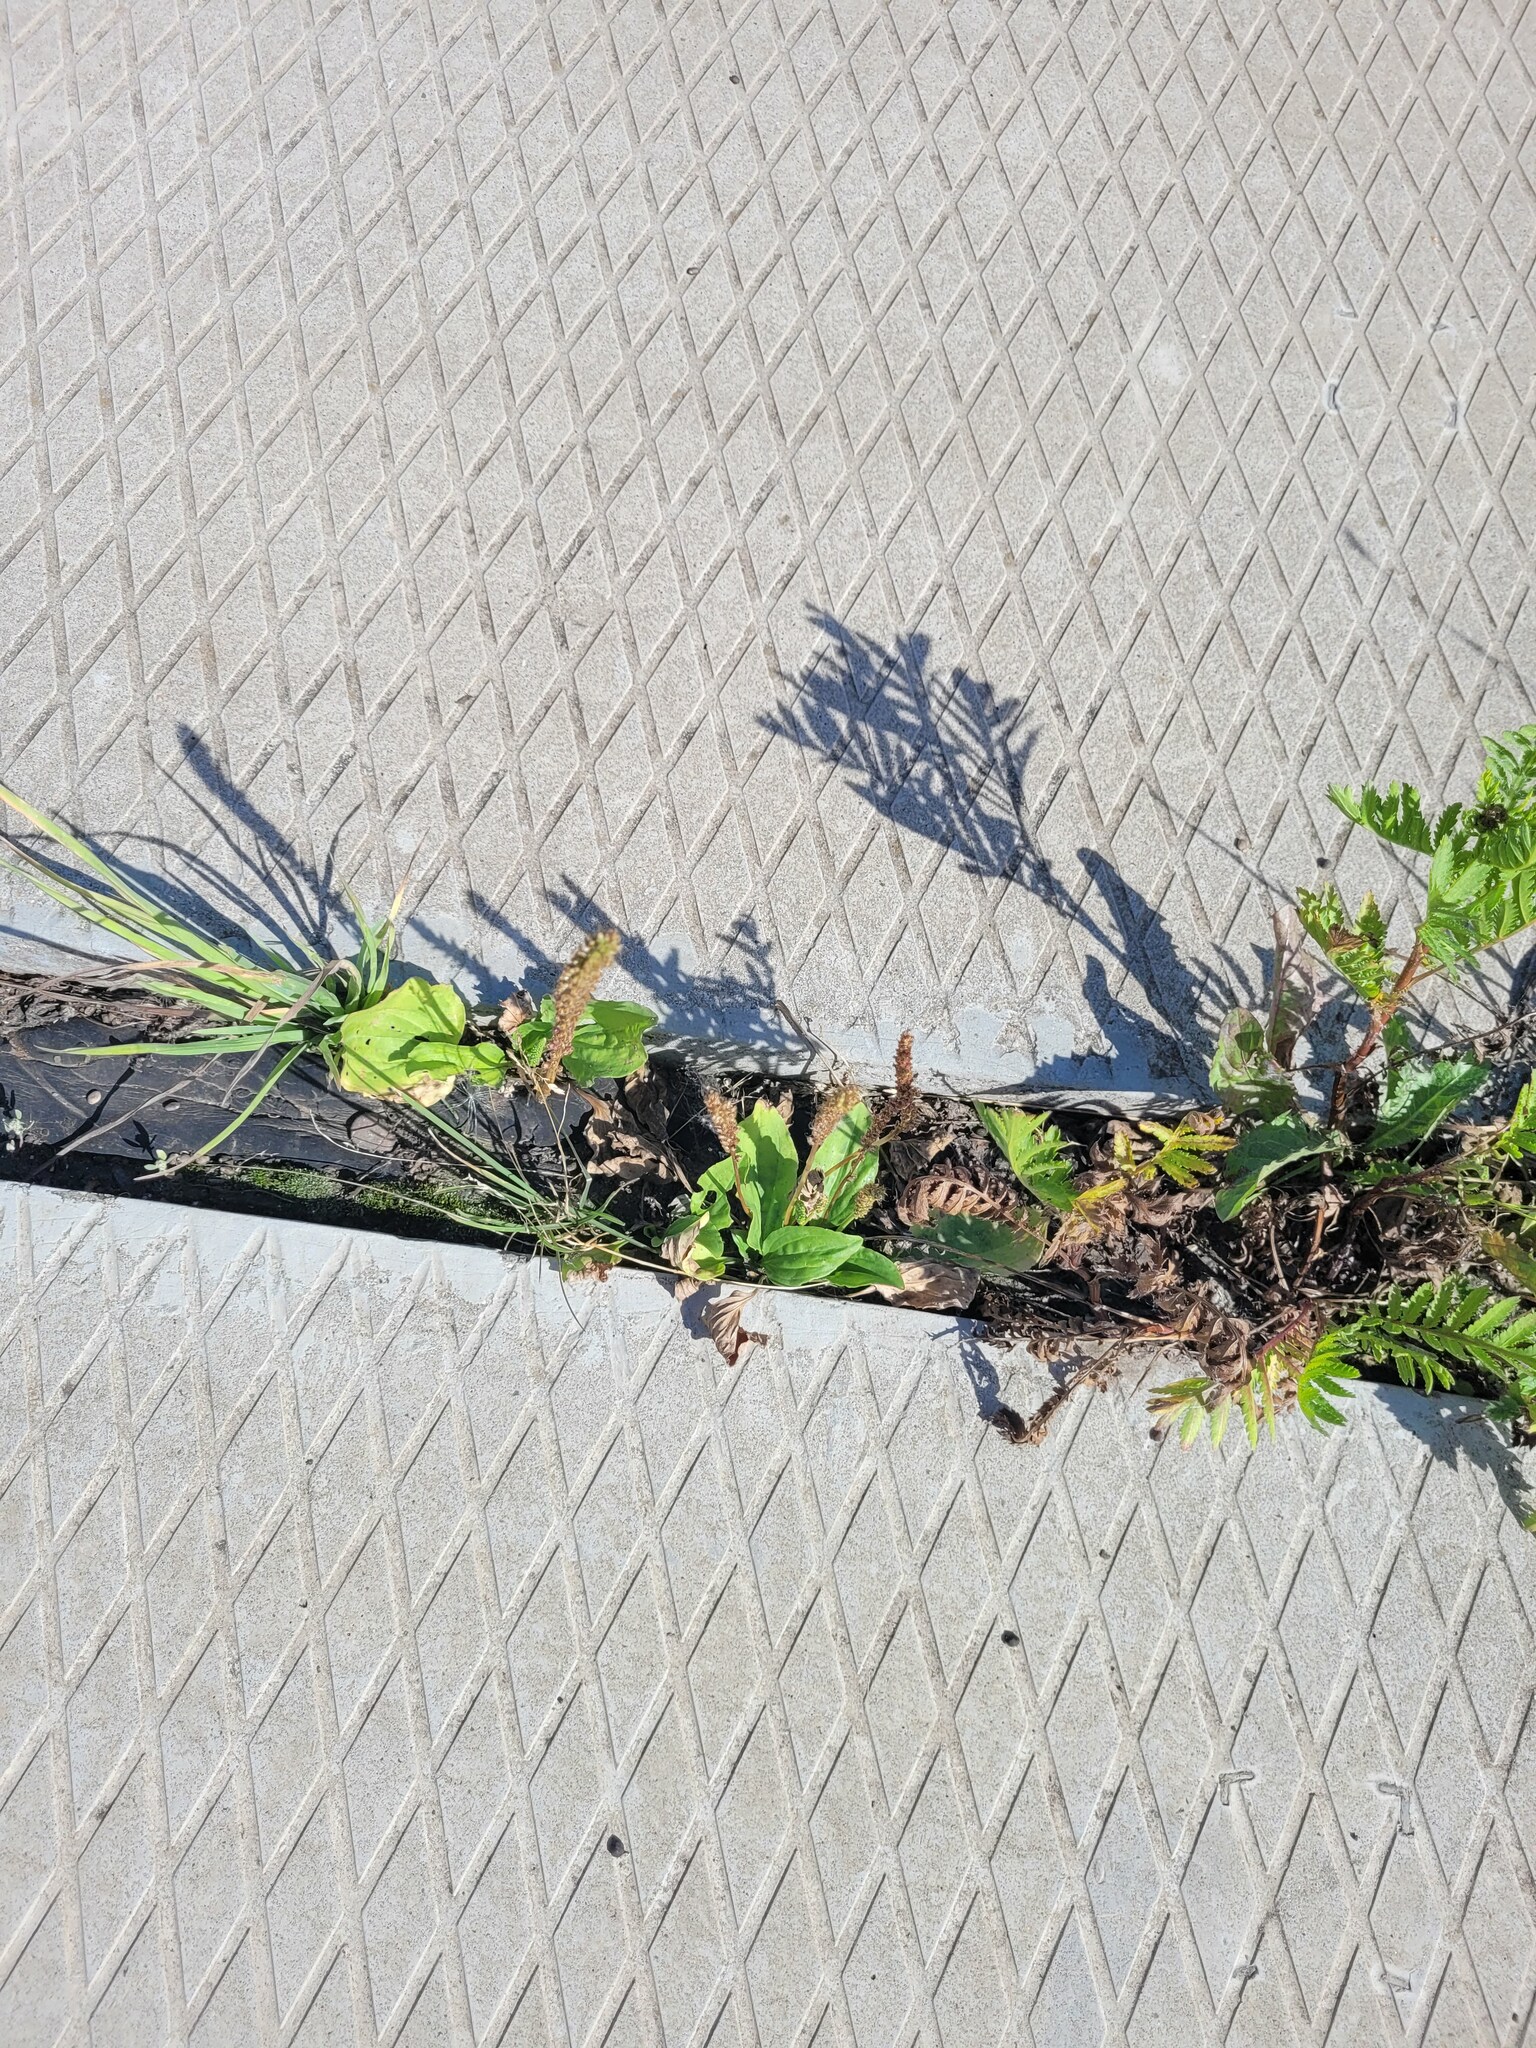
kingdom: Plantae
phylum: Tracheophyta
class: Magnoliopsida
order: Lamiales
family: Plantaginaceae
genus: Plantago
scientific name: Plantago major
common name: Common plantain
